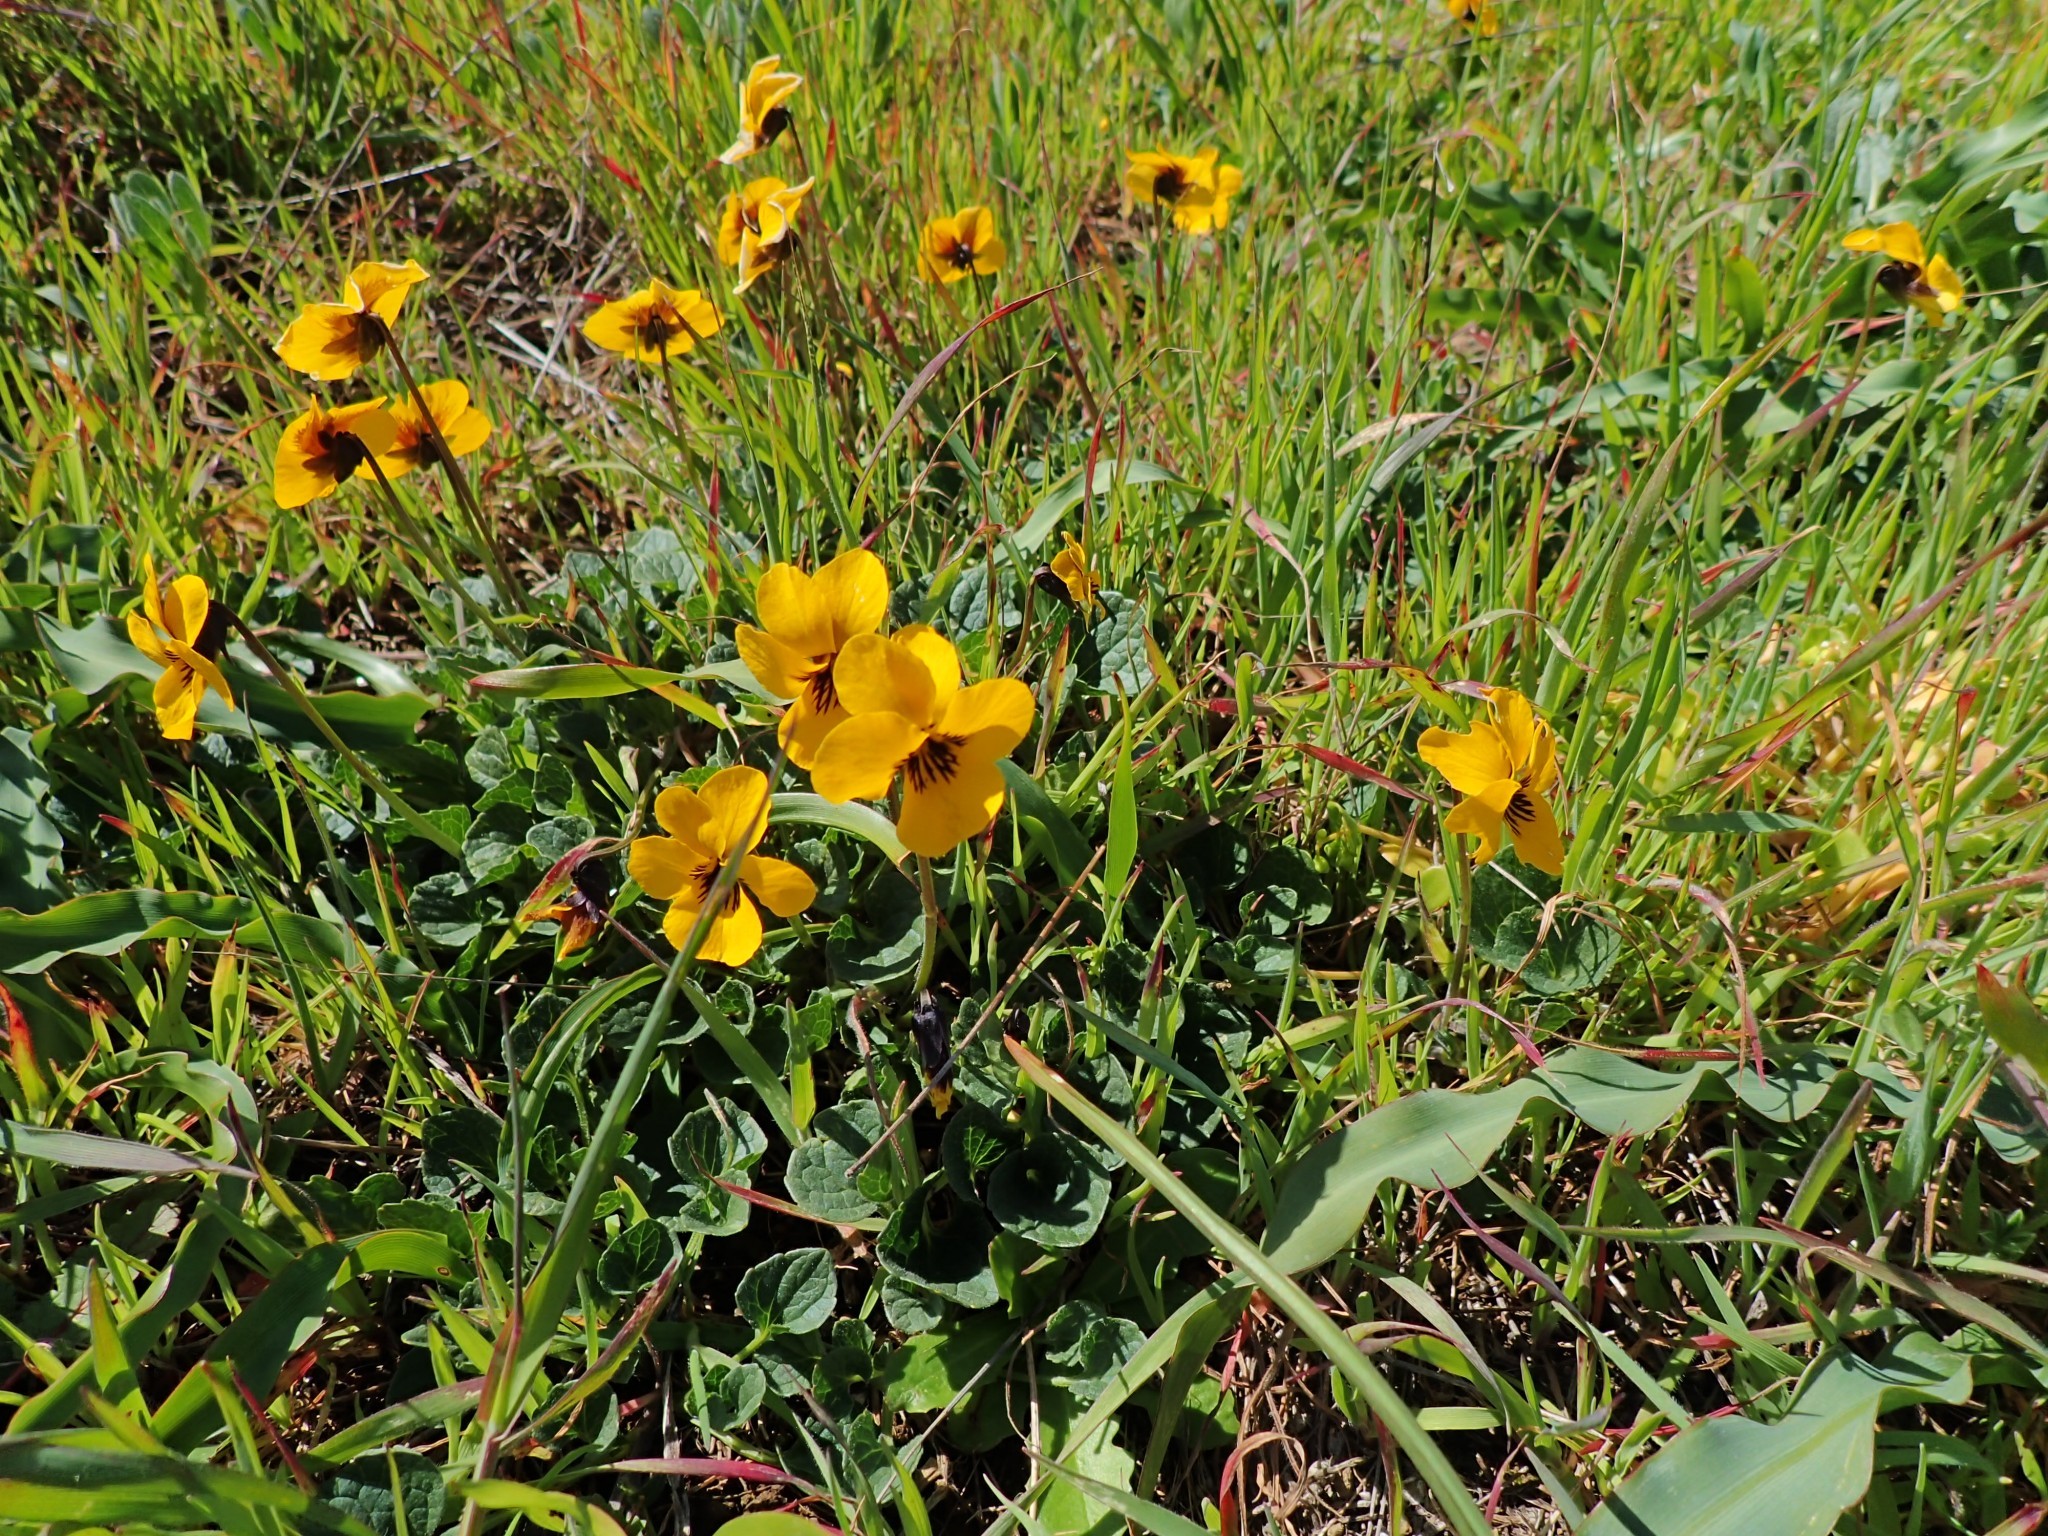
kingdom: Plantae
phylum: Tracheophyta
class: Magnoliopsida
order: Malpighiales
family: Violaceae
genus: Viola
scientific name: Viola pedunculata
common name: California golden violet
